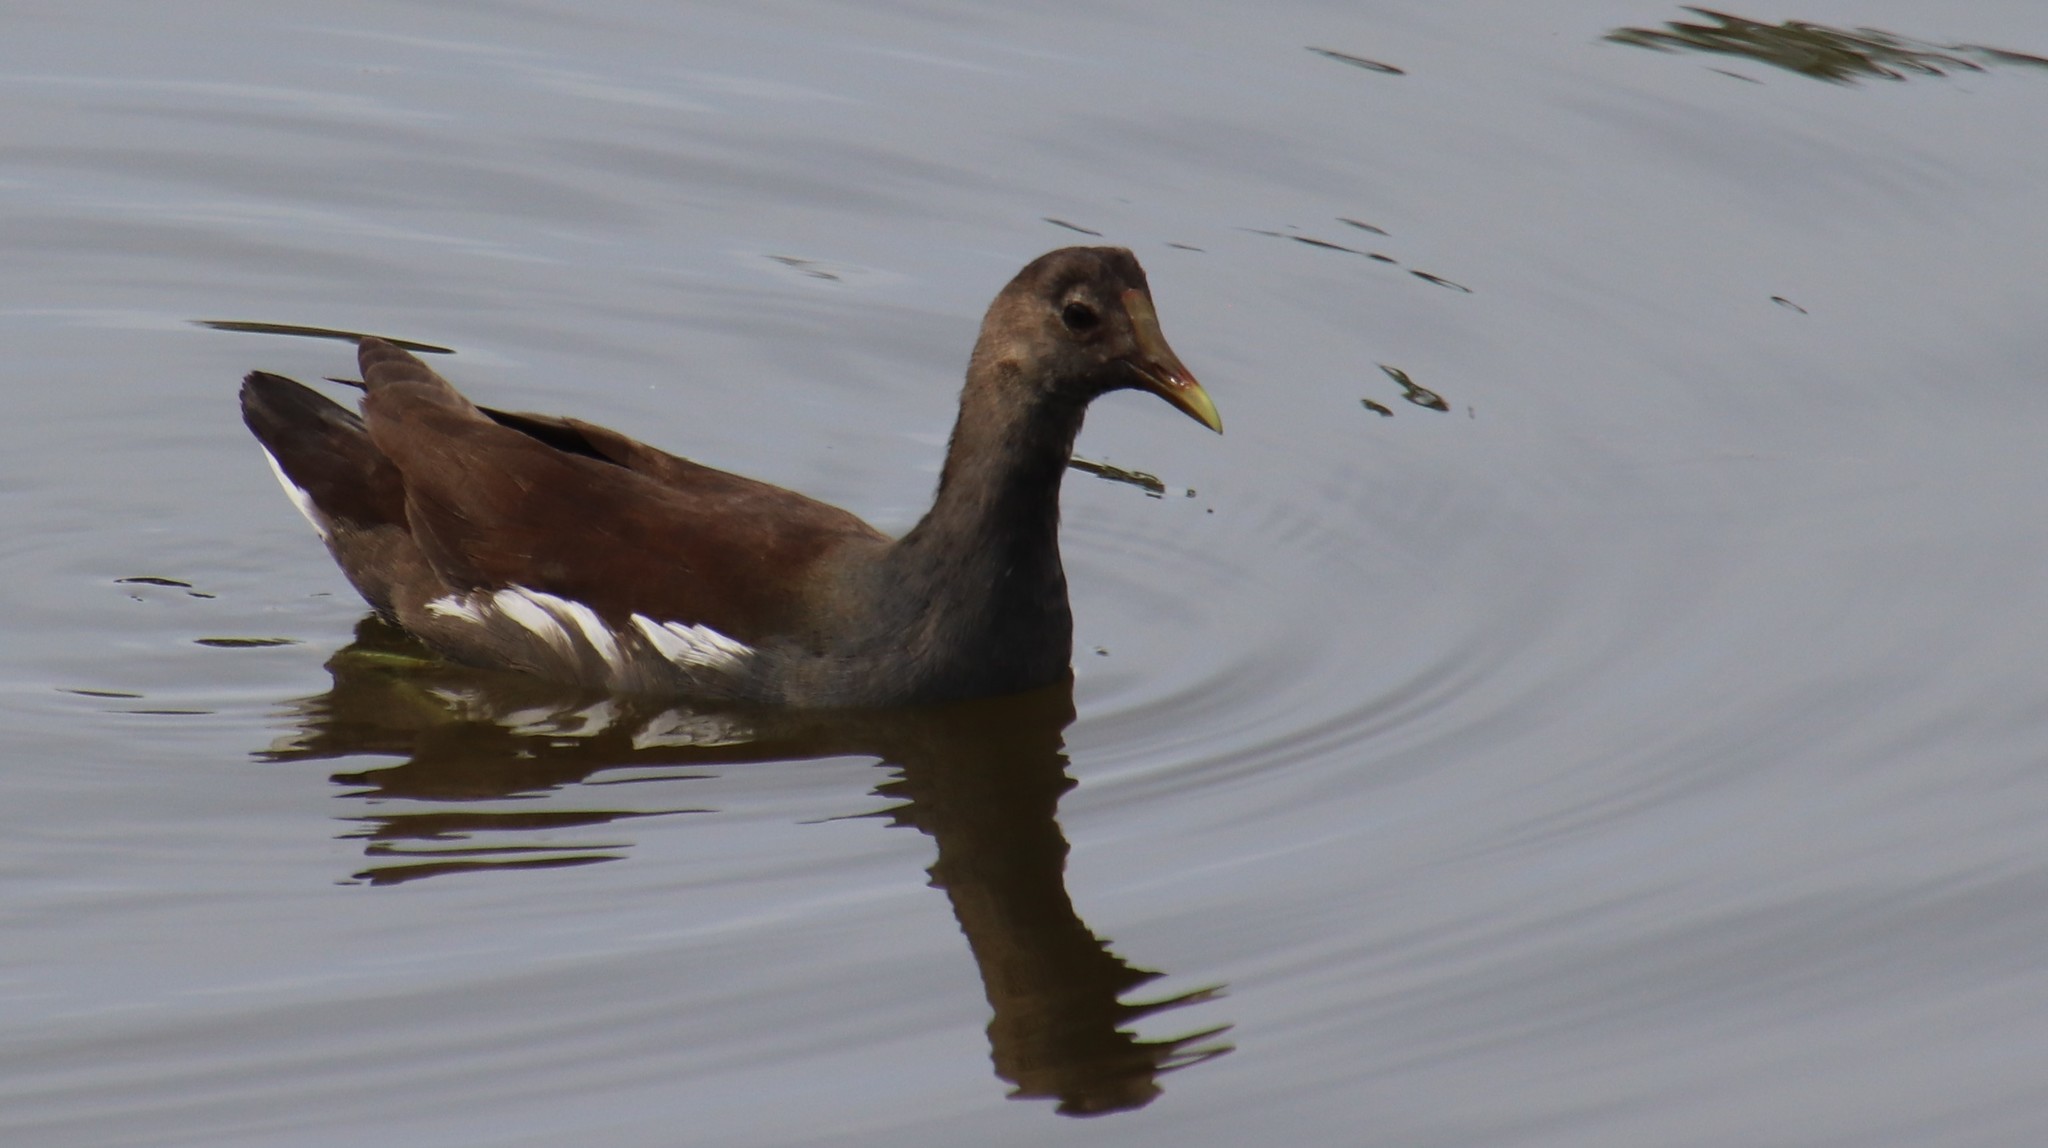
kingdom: Animalia
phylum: Chordata
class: Aves
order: Gruiformes
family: Rallidae
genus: Gallinula
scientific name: Gallinula chloropus
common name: Common moorhen
